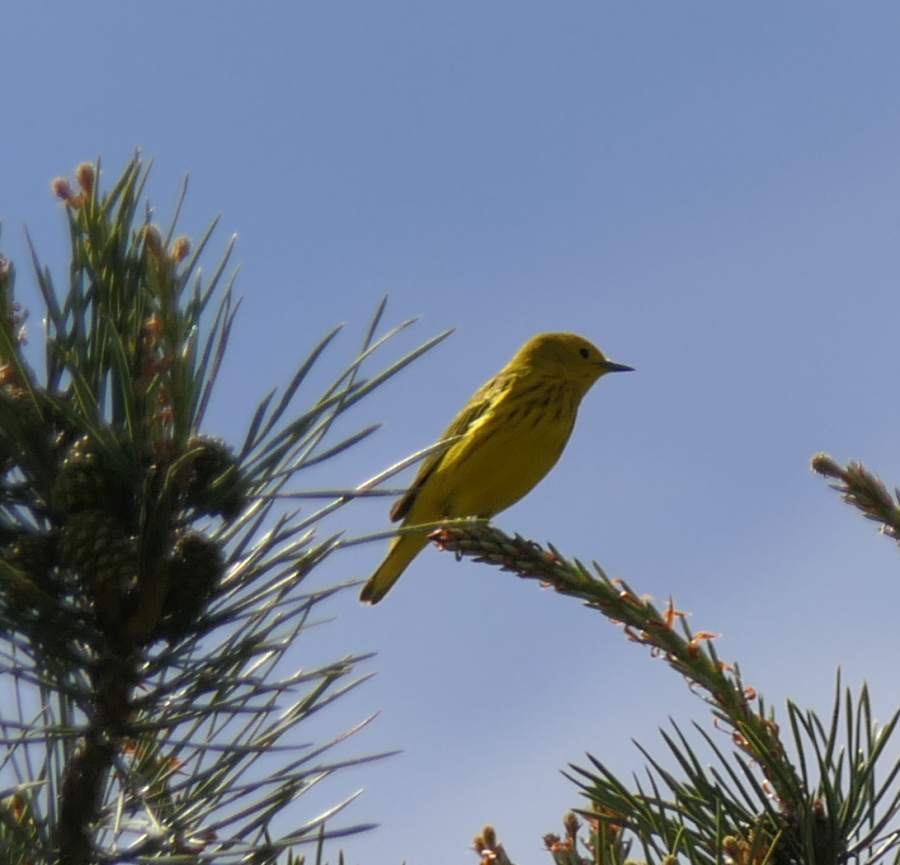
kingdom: Animalia
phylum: Chordata
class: Aves
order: Passeriformes
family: Parulidae
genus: Setophaga
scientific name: Setophaga petechia
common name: Yellow warbler
